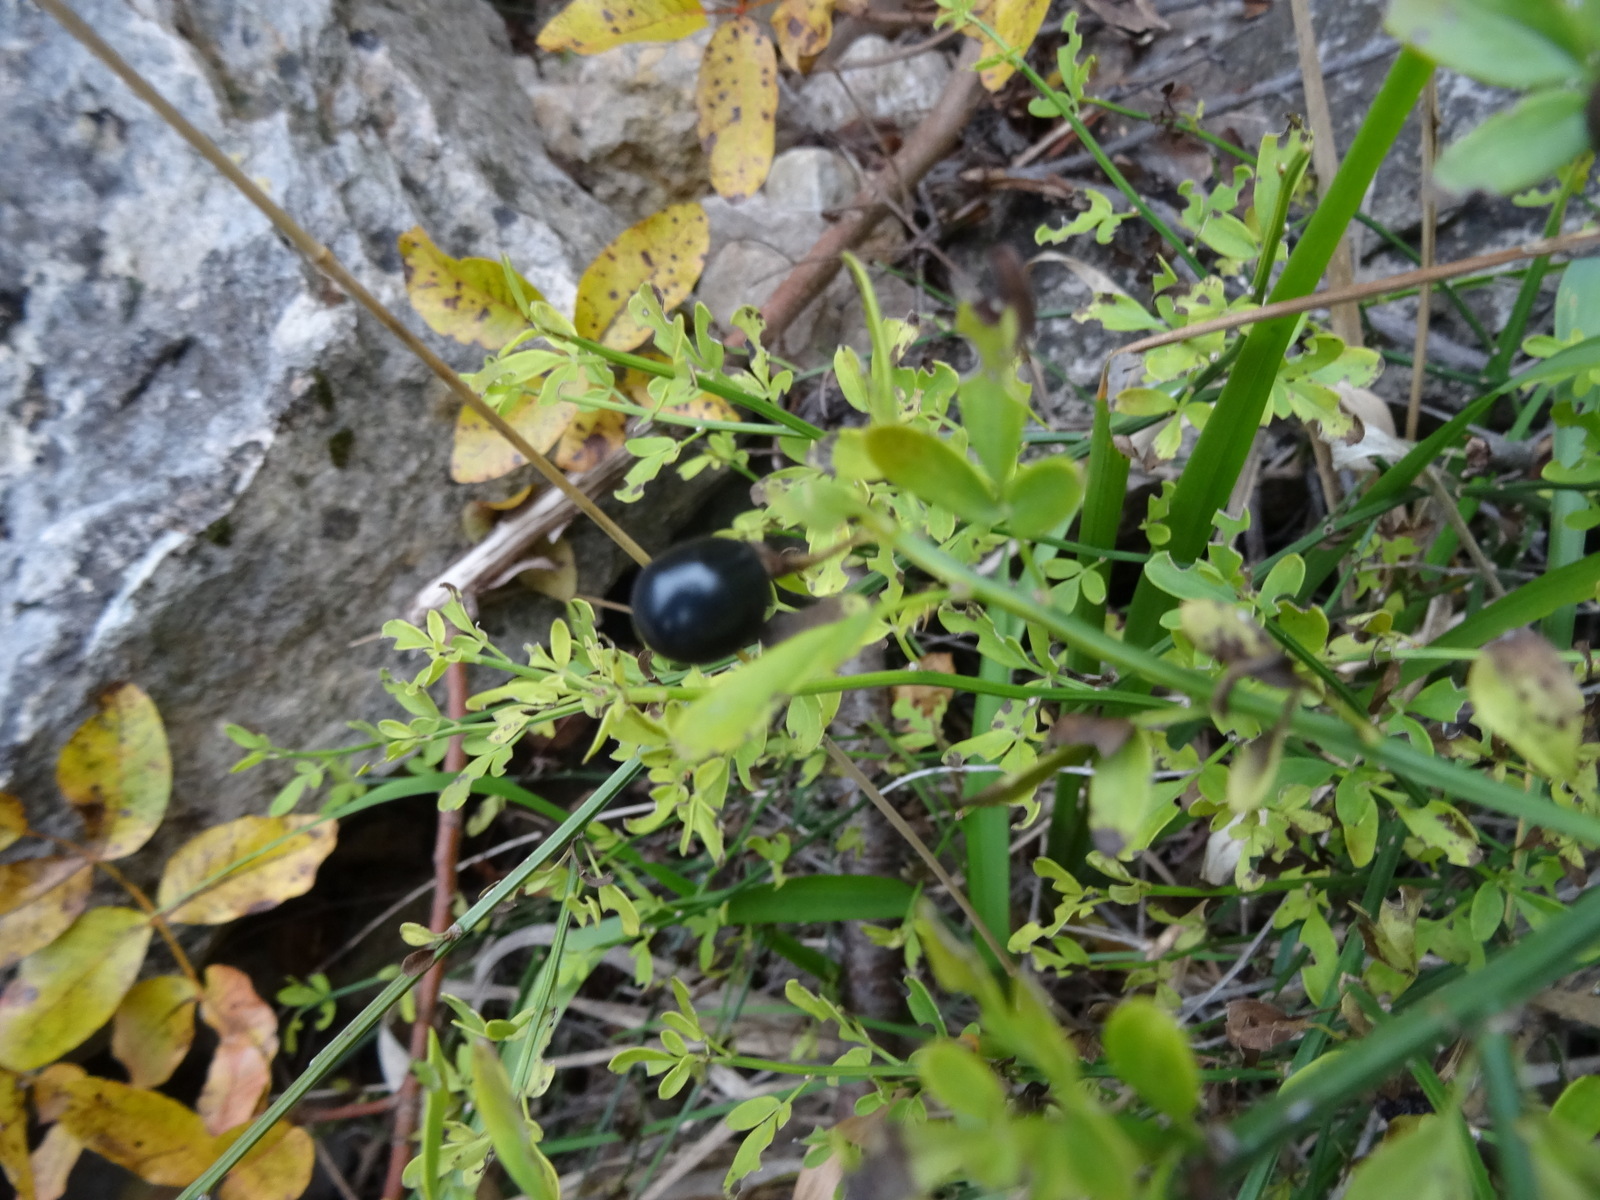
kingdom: Plantae
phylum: Tracheophyta
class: Magnoliopsida
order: Lamiales
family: Oleaceae
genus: Chrysojasminum
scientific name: Chrysojasminum fruticans
